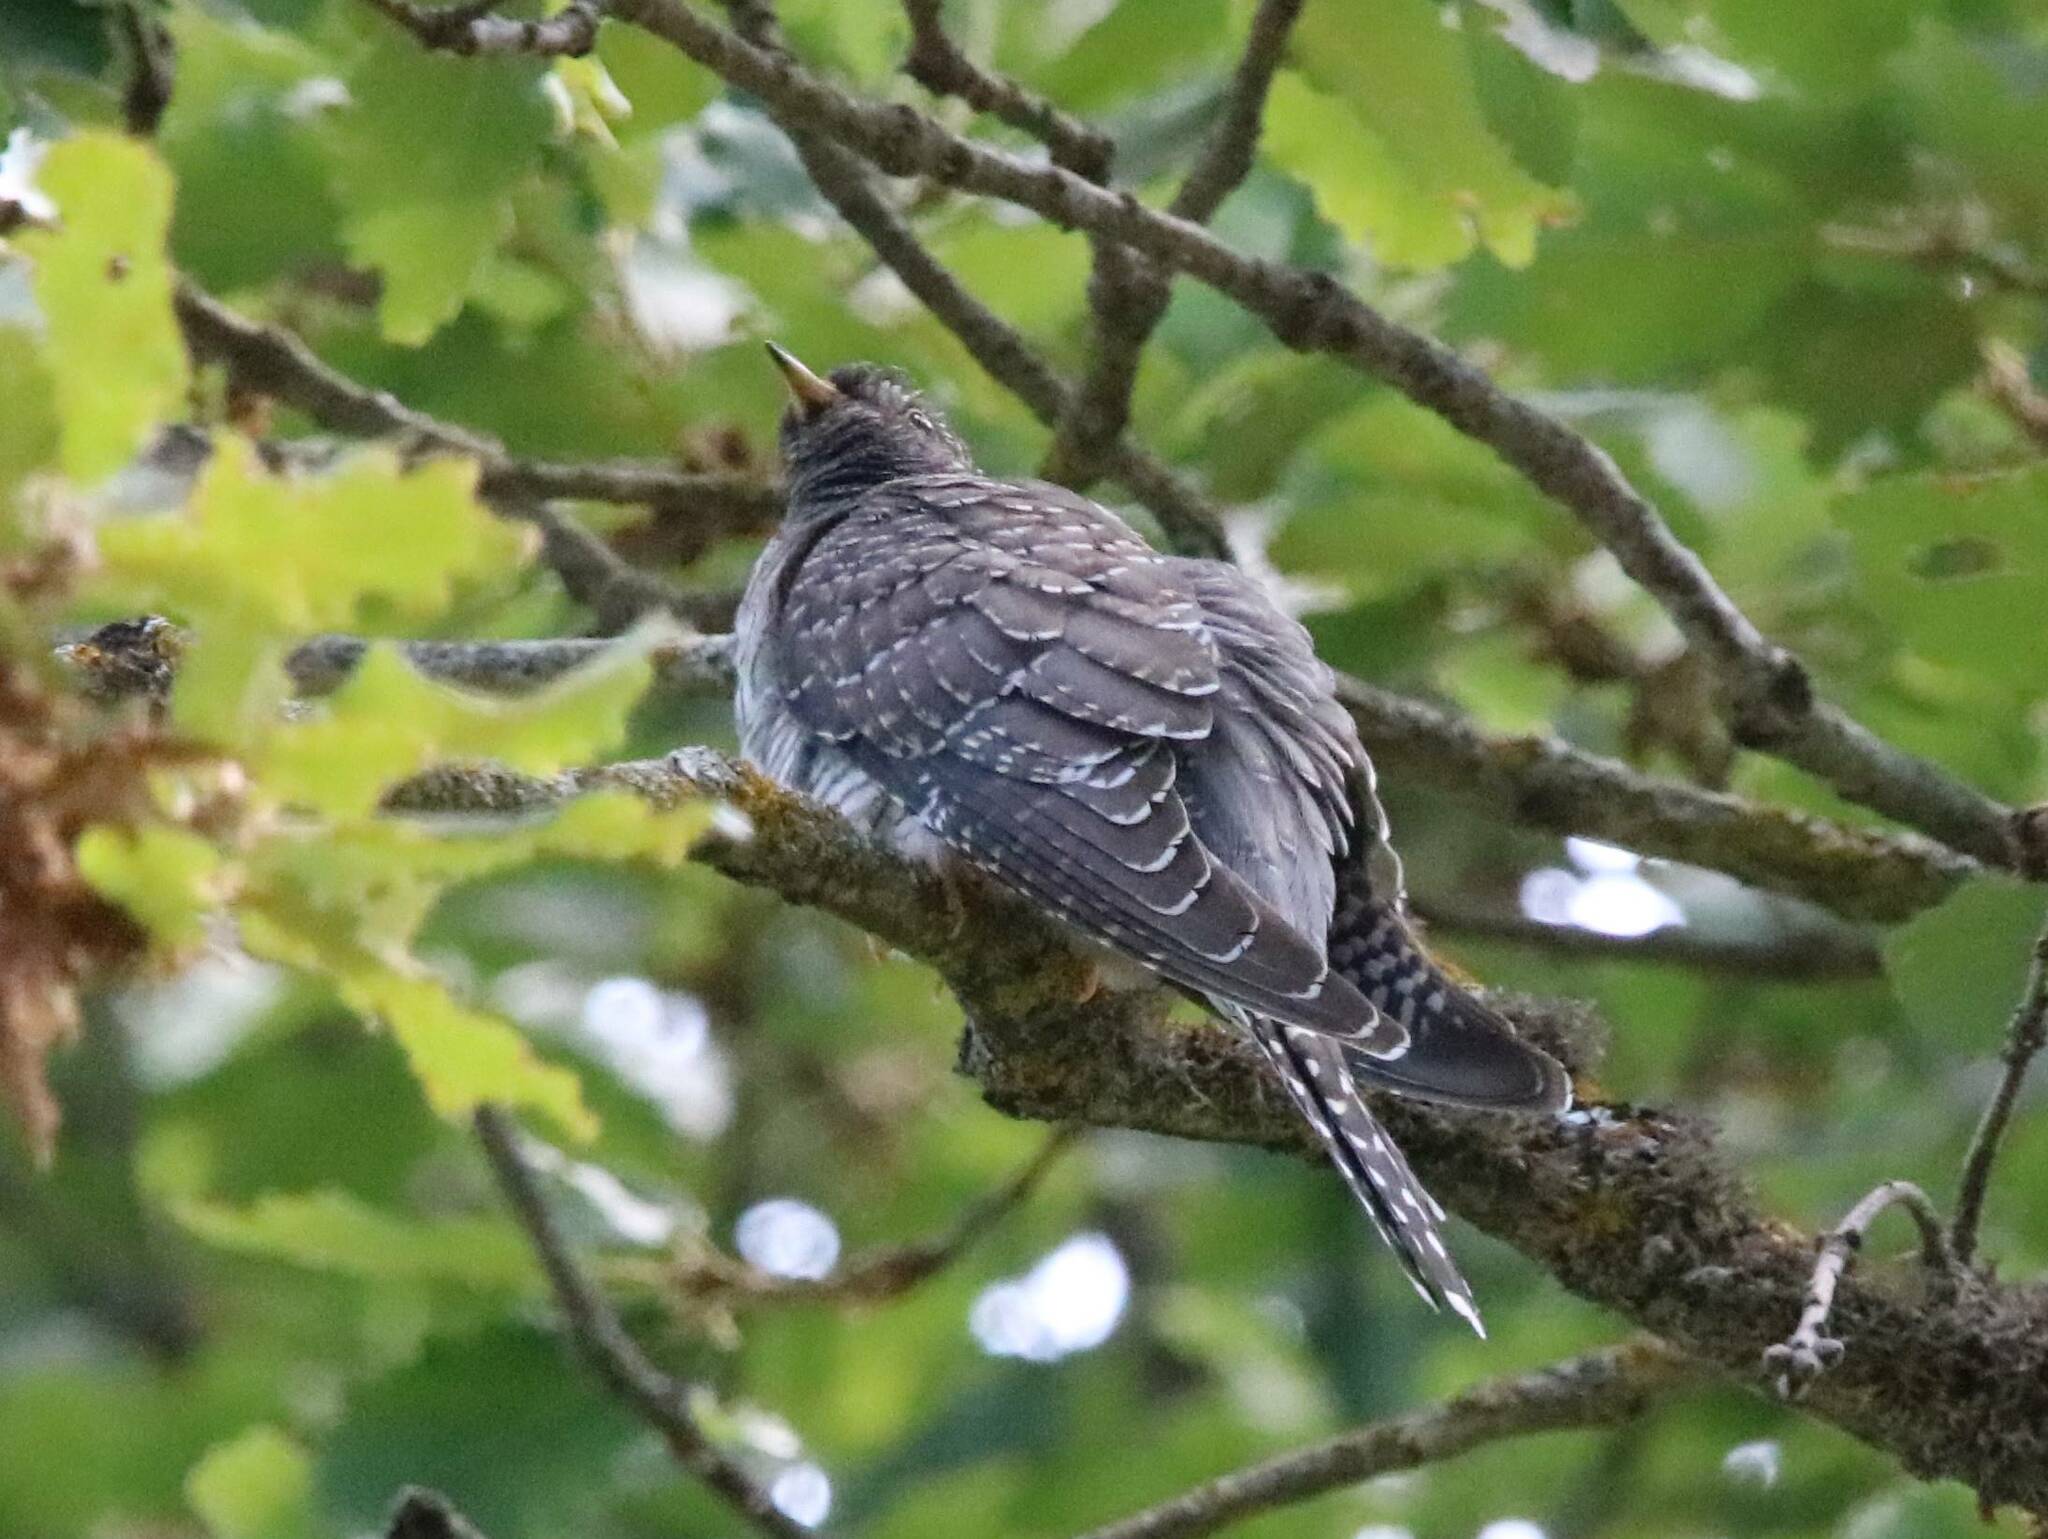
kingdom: Animalia
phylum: Chordata
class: Aves
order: Cuculiformes
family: Cuculidae
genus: Cuculus
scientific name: Cuculus canorus
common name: Common cuckoo
